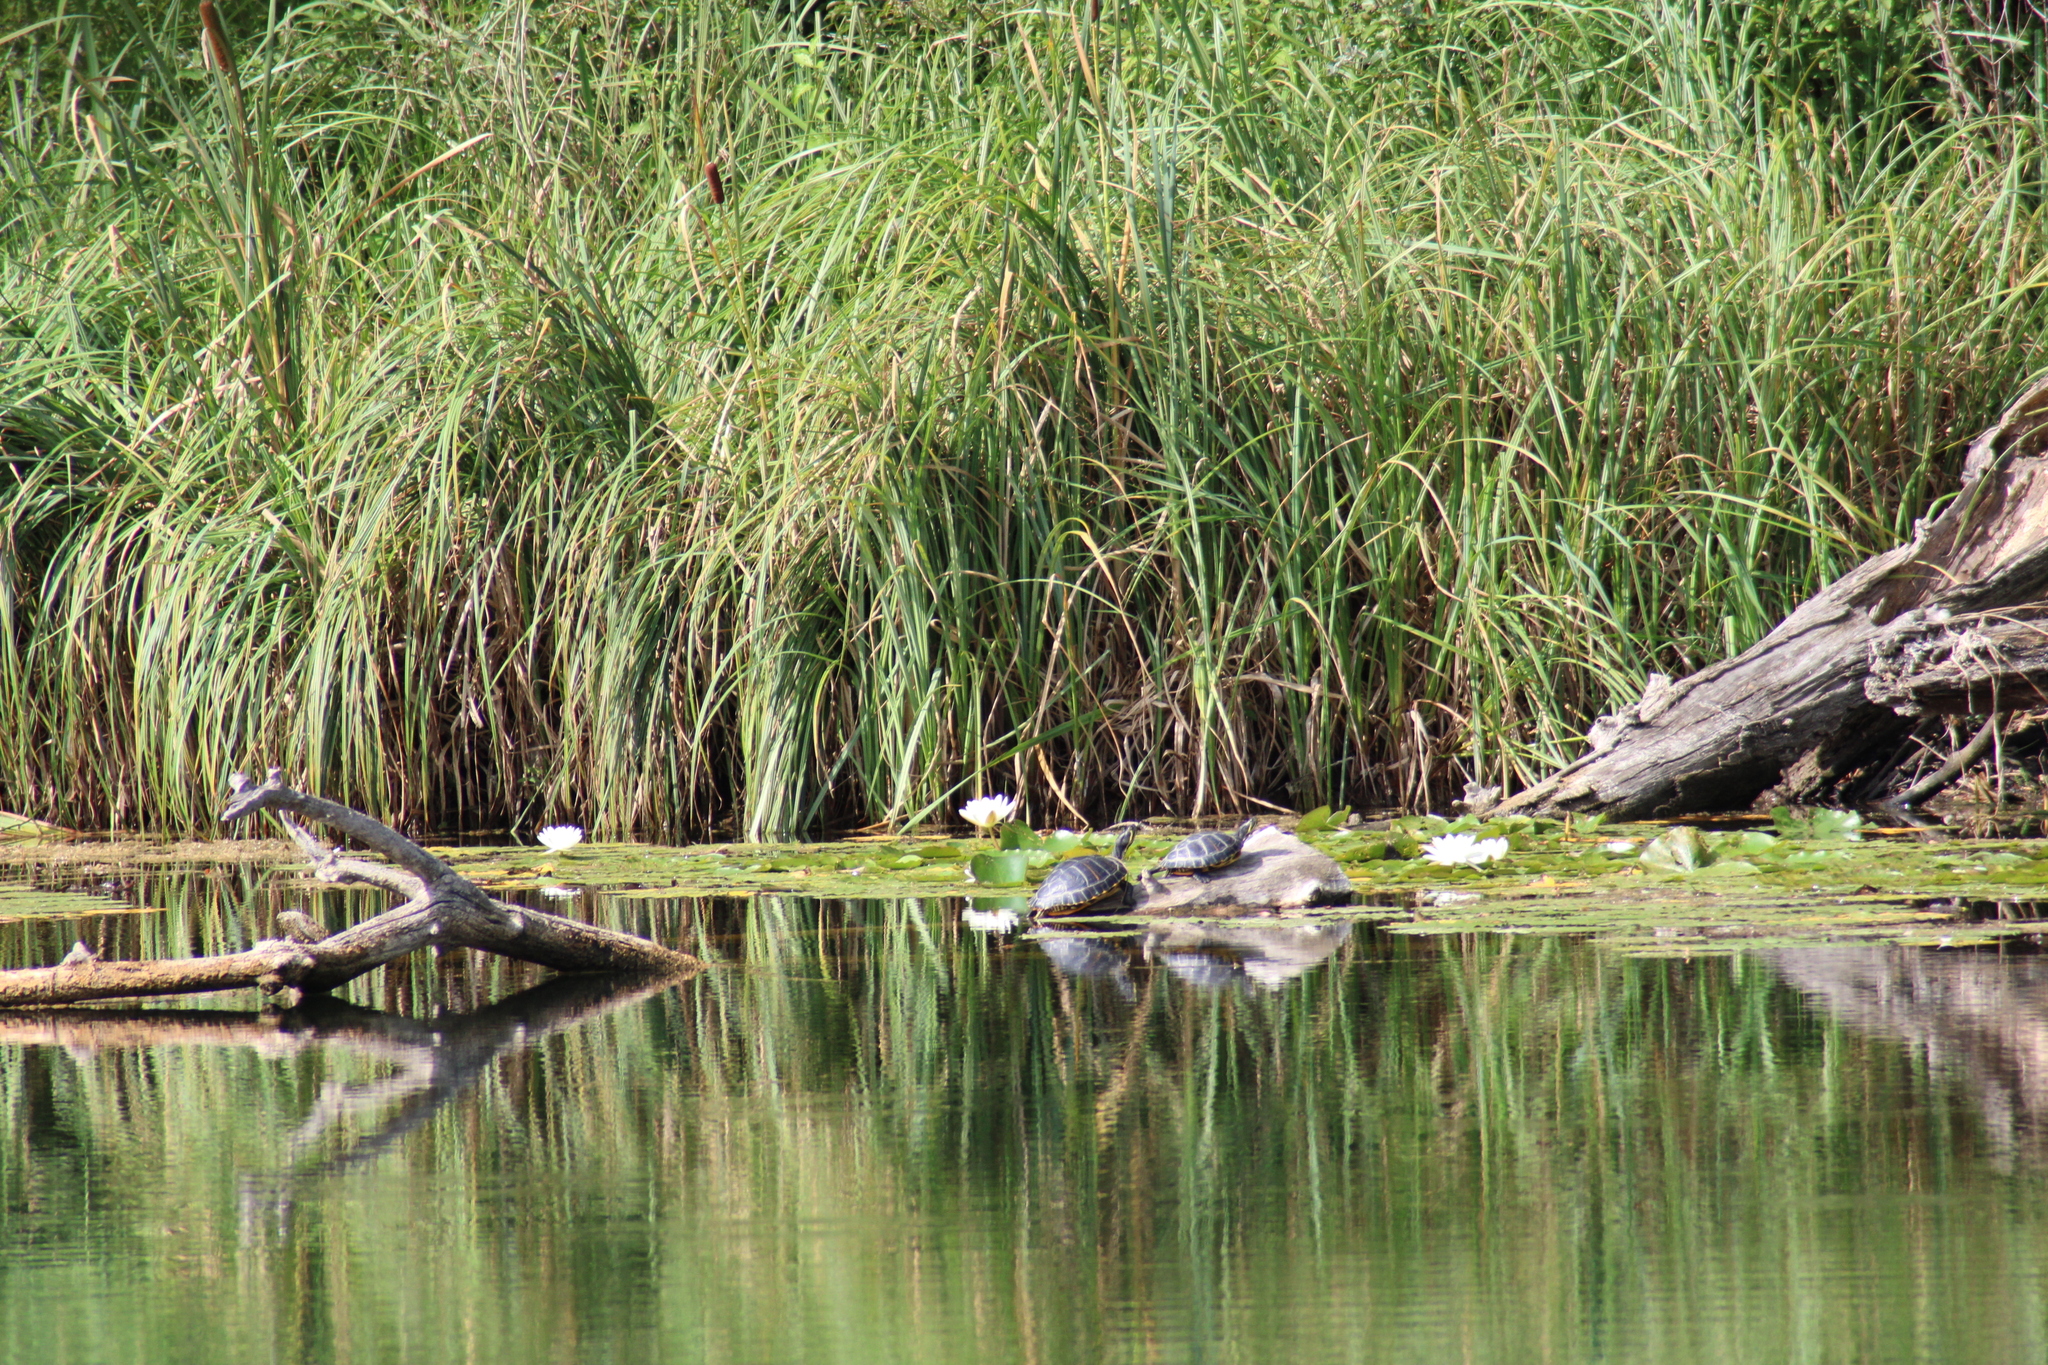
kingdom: Animalia
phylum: Chordata
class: Testudines
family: Emydidae
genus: Trachemys
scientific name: Trachemys scripta
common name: Slider
